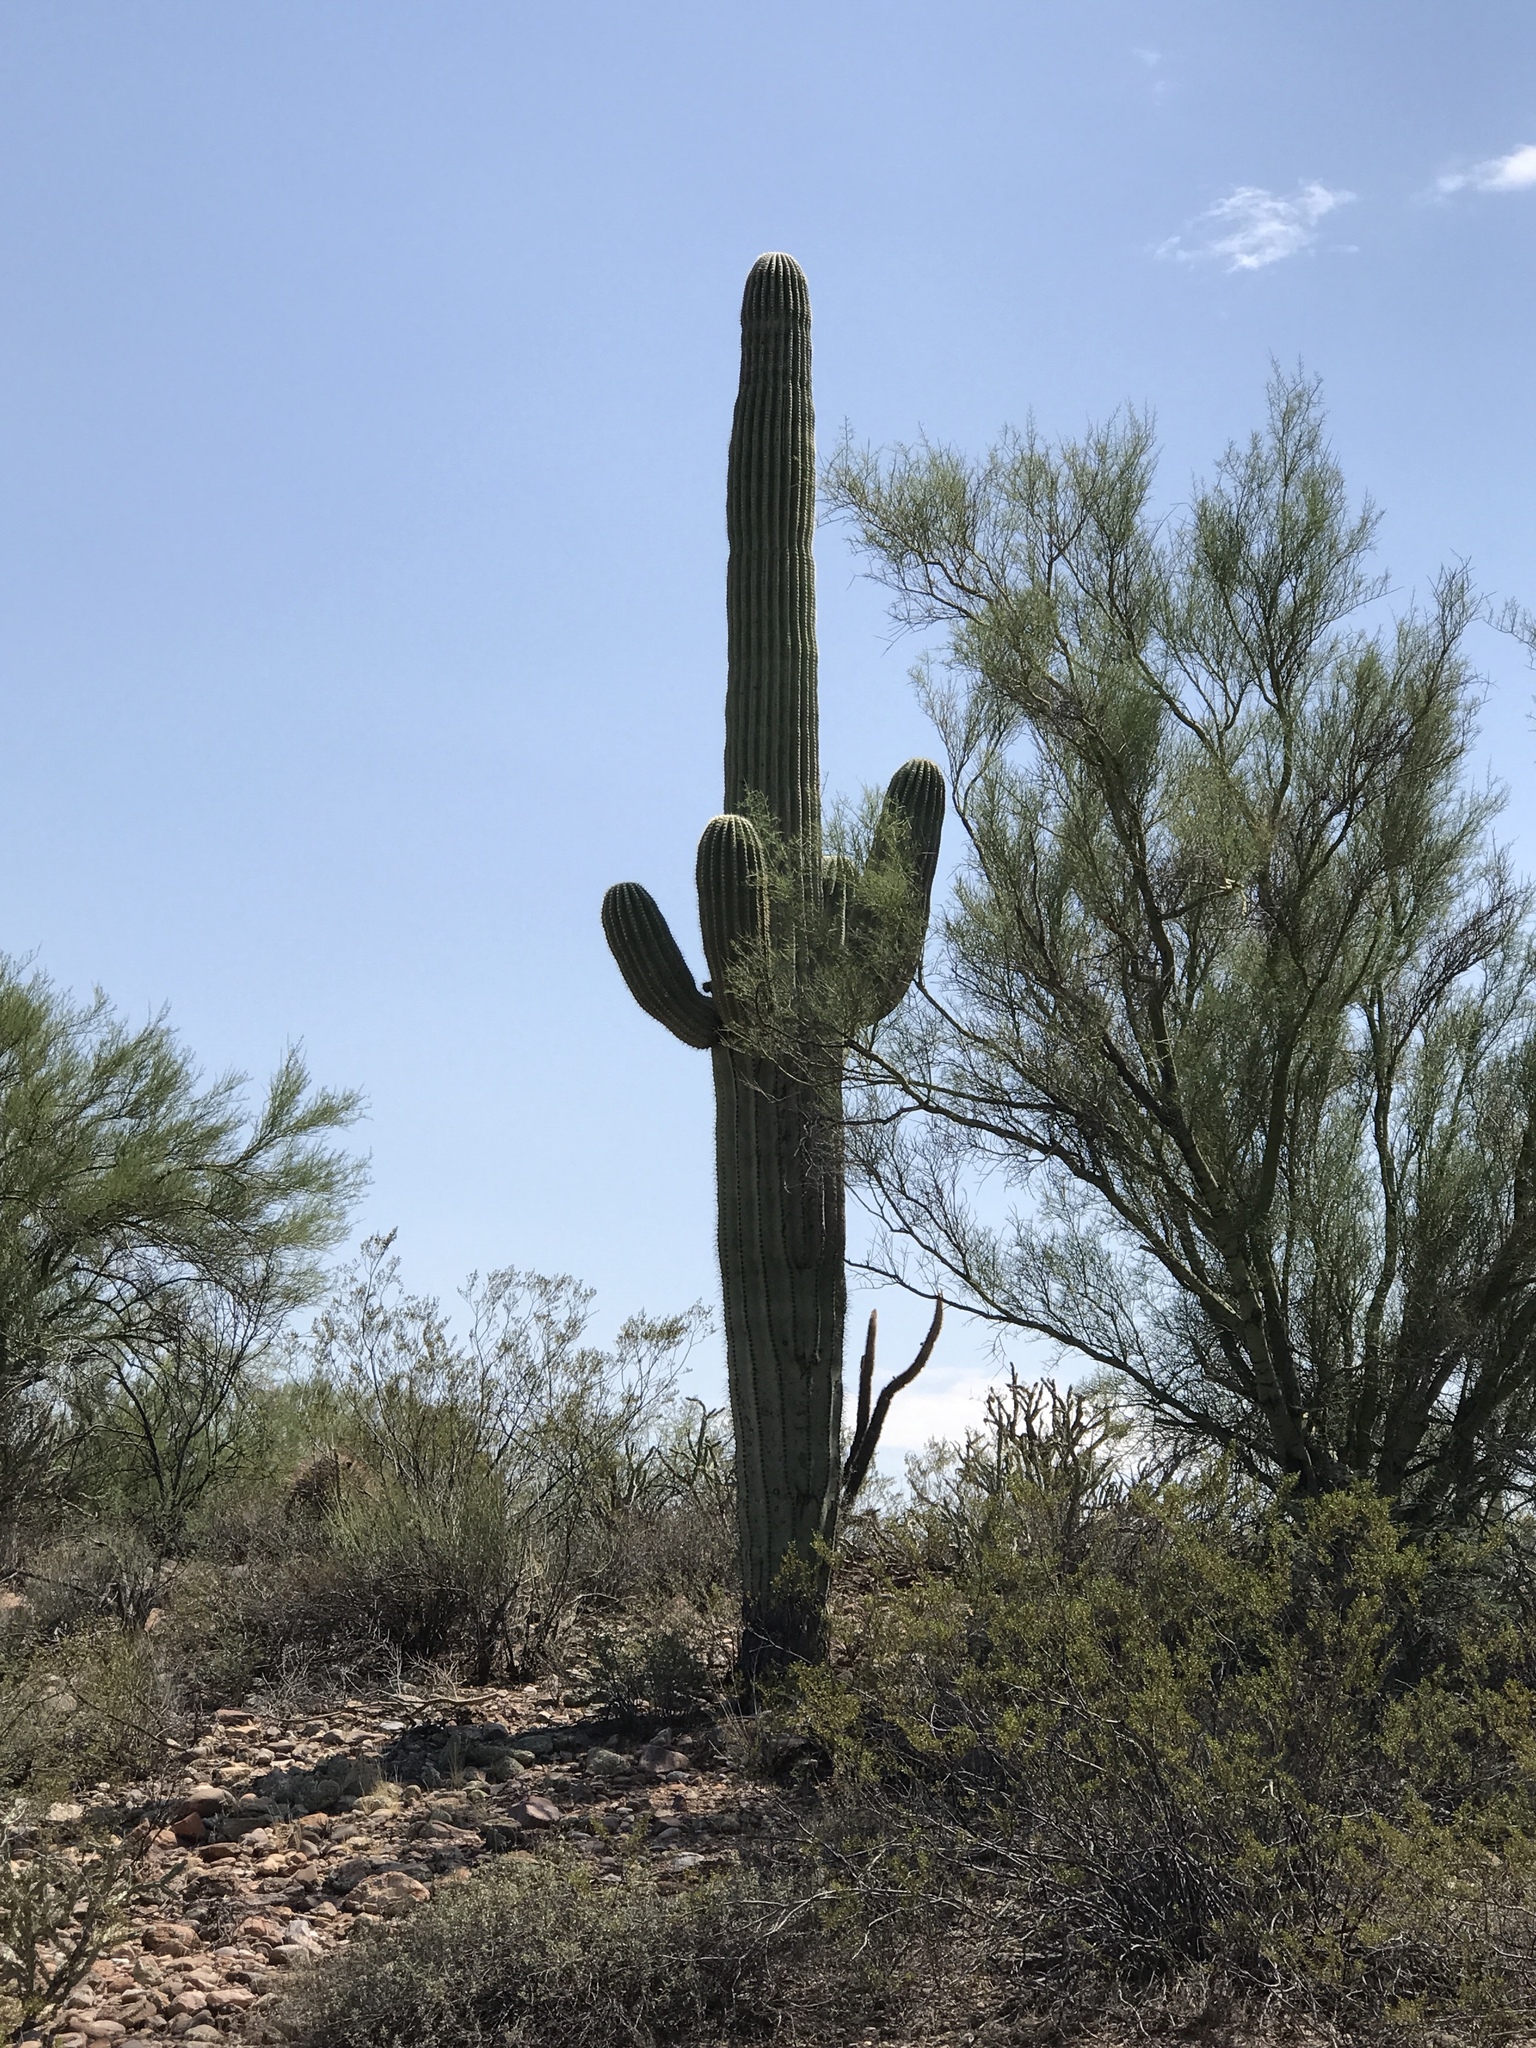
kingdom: Plantae
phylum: Tracheophyta
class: Magnoliopsida
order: Caryophyllales
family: Cactaceae
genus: Carnegiea
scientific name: Carnegiea gigantea
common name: Saguaro
